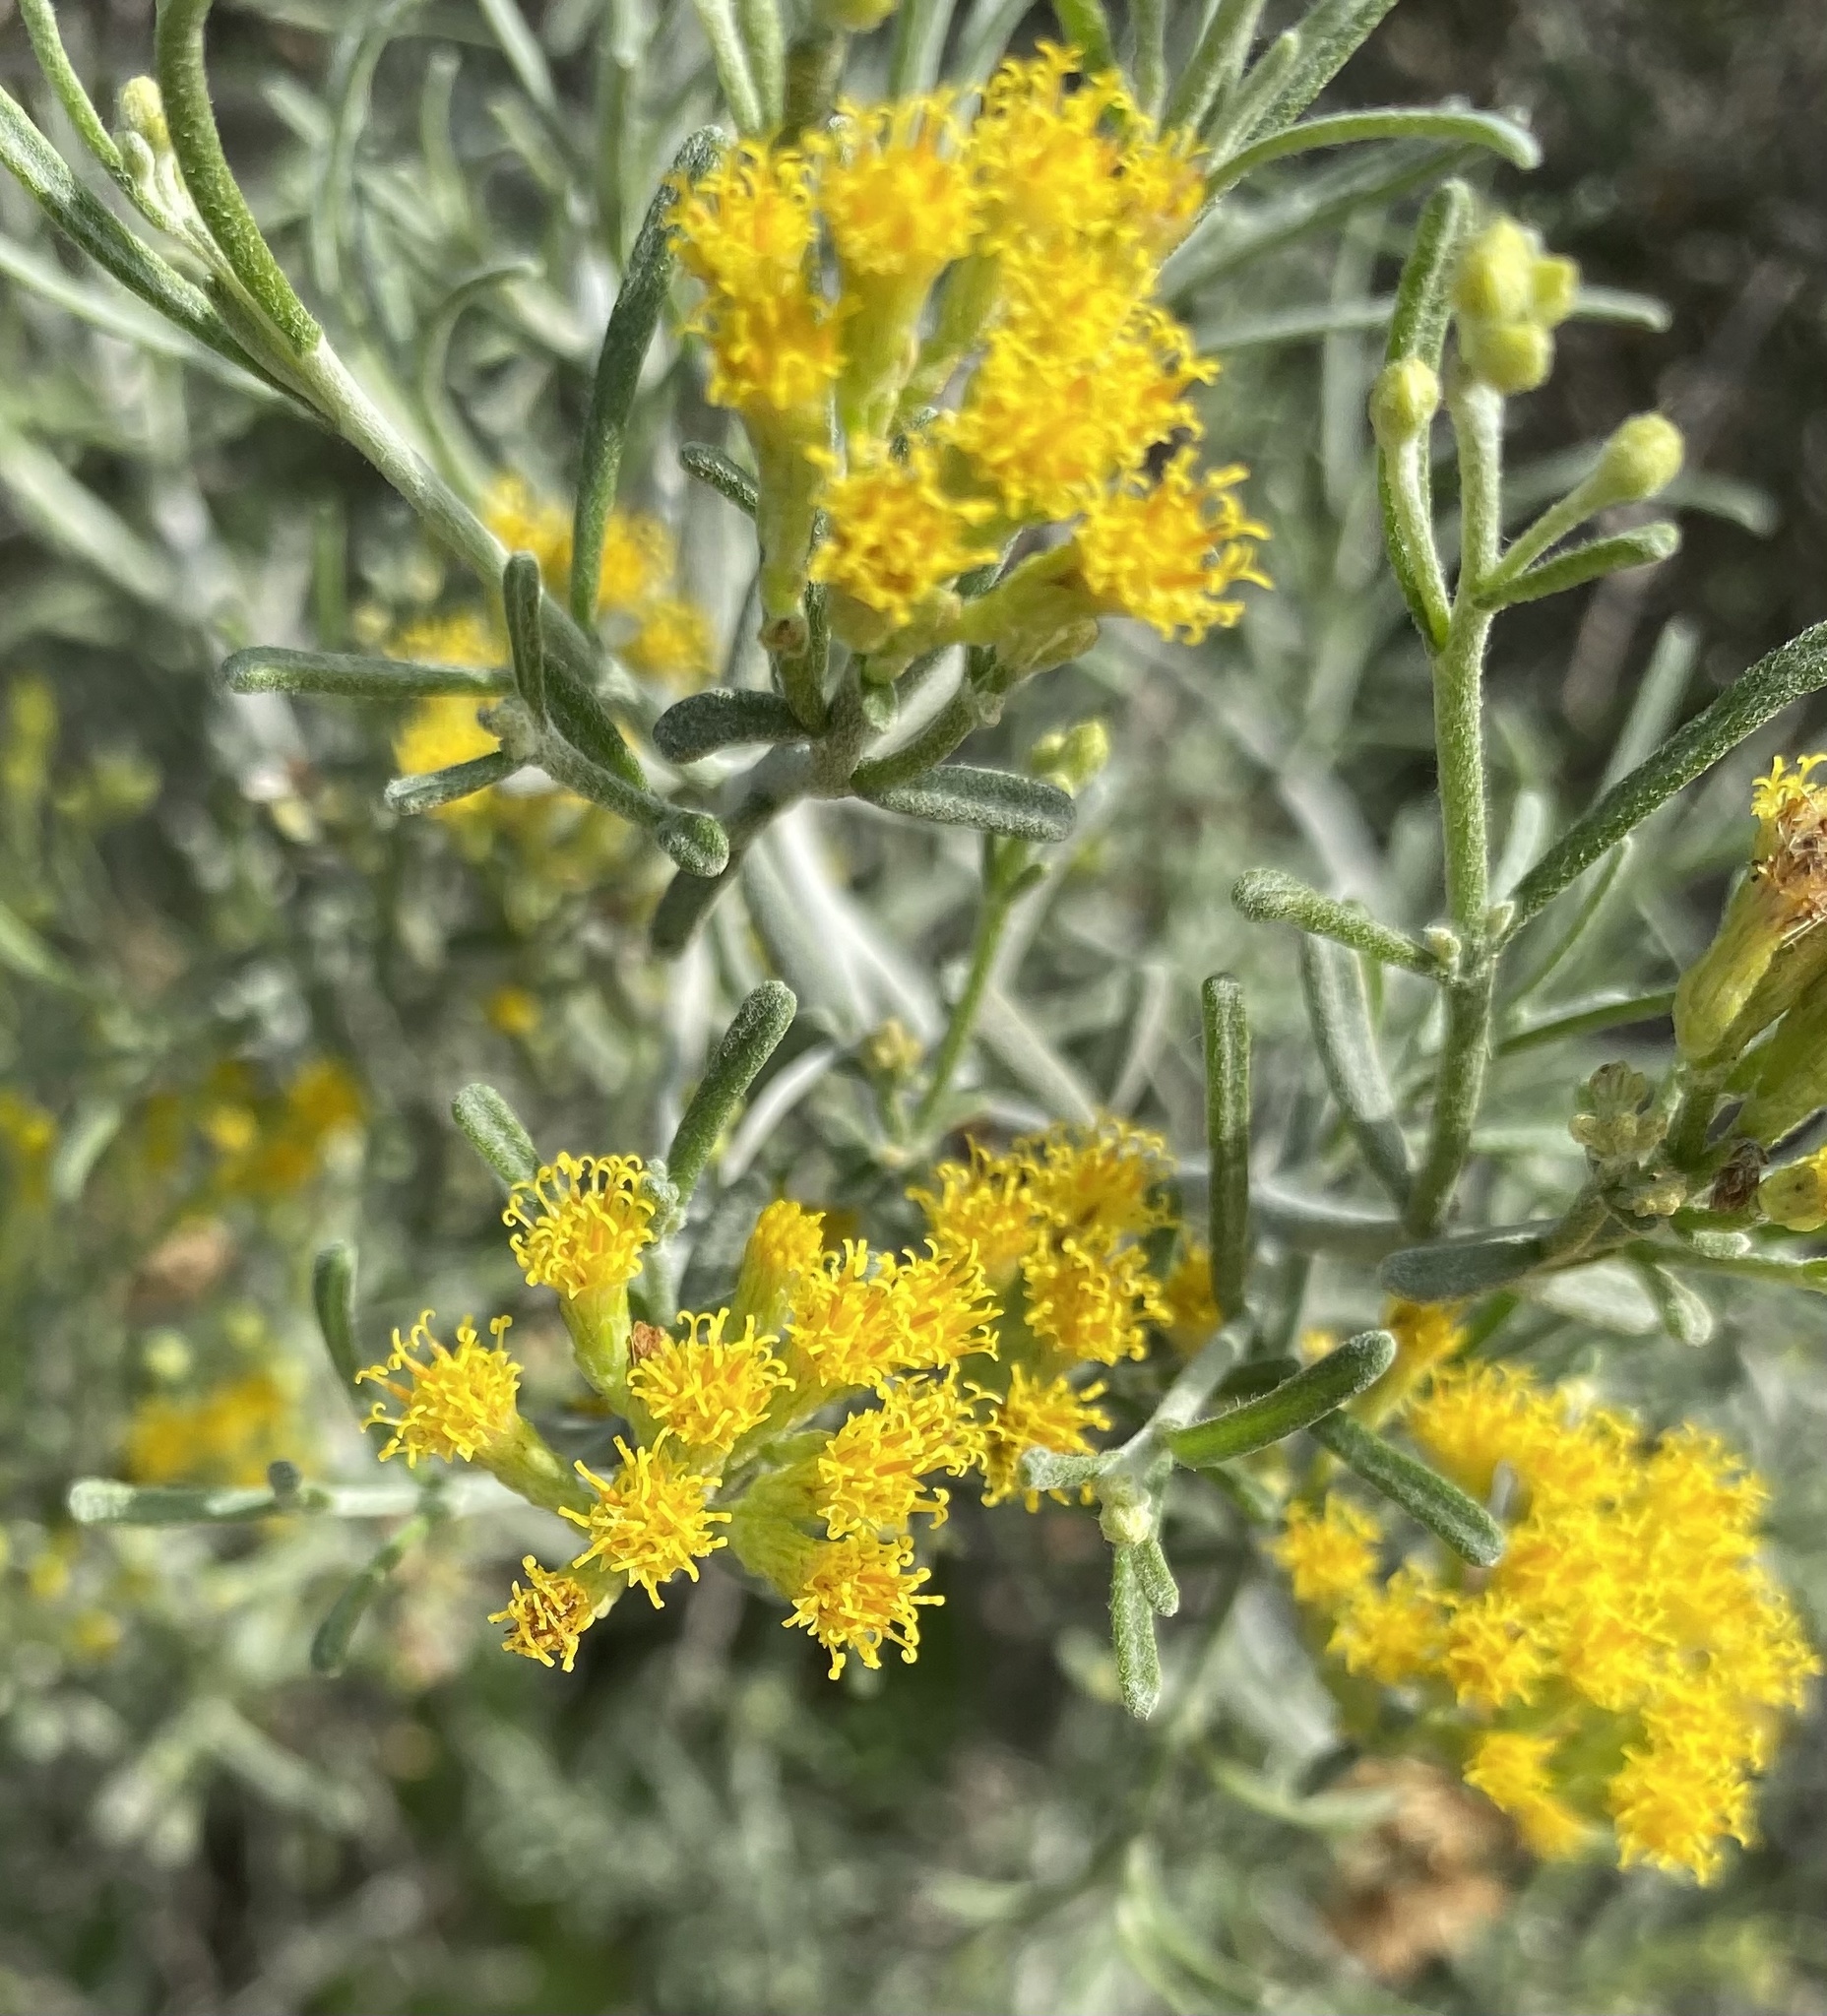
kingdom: Plantae
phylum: Tracheophyta
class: Magnoliopsida
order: Asterales
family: Asteraceae
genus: Schizogyne
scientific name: Schizogyne sericea
